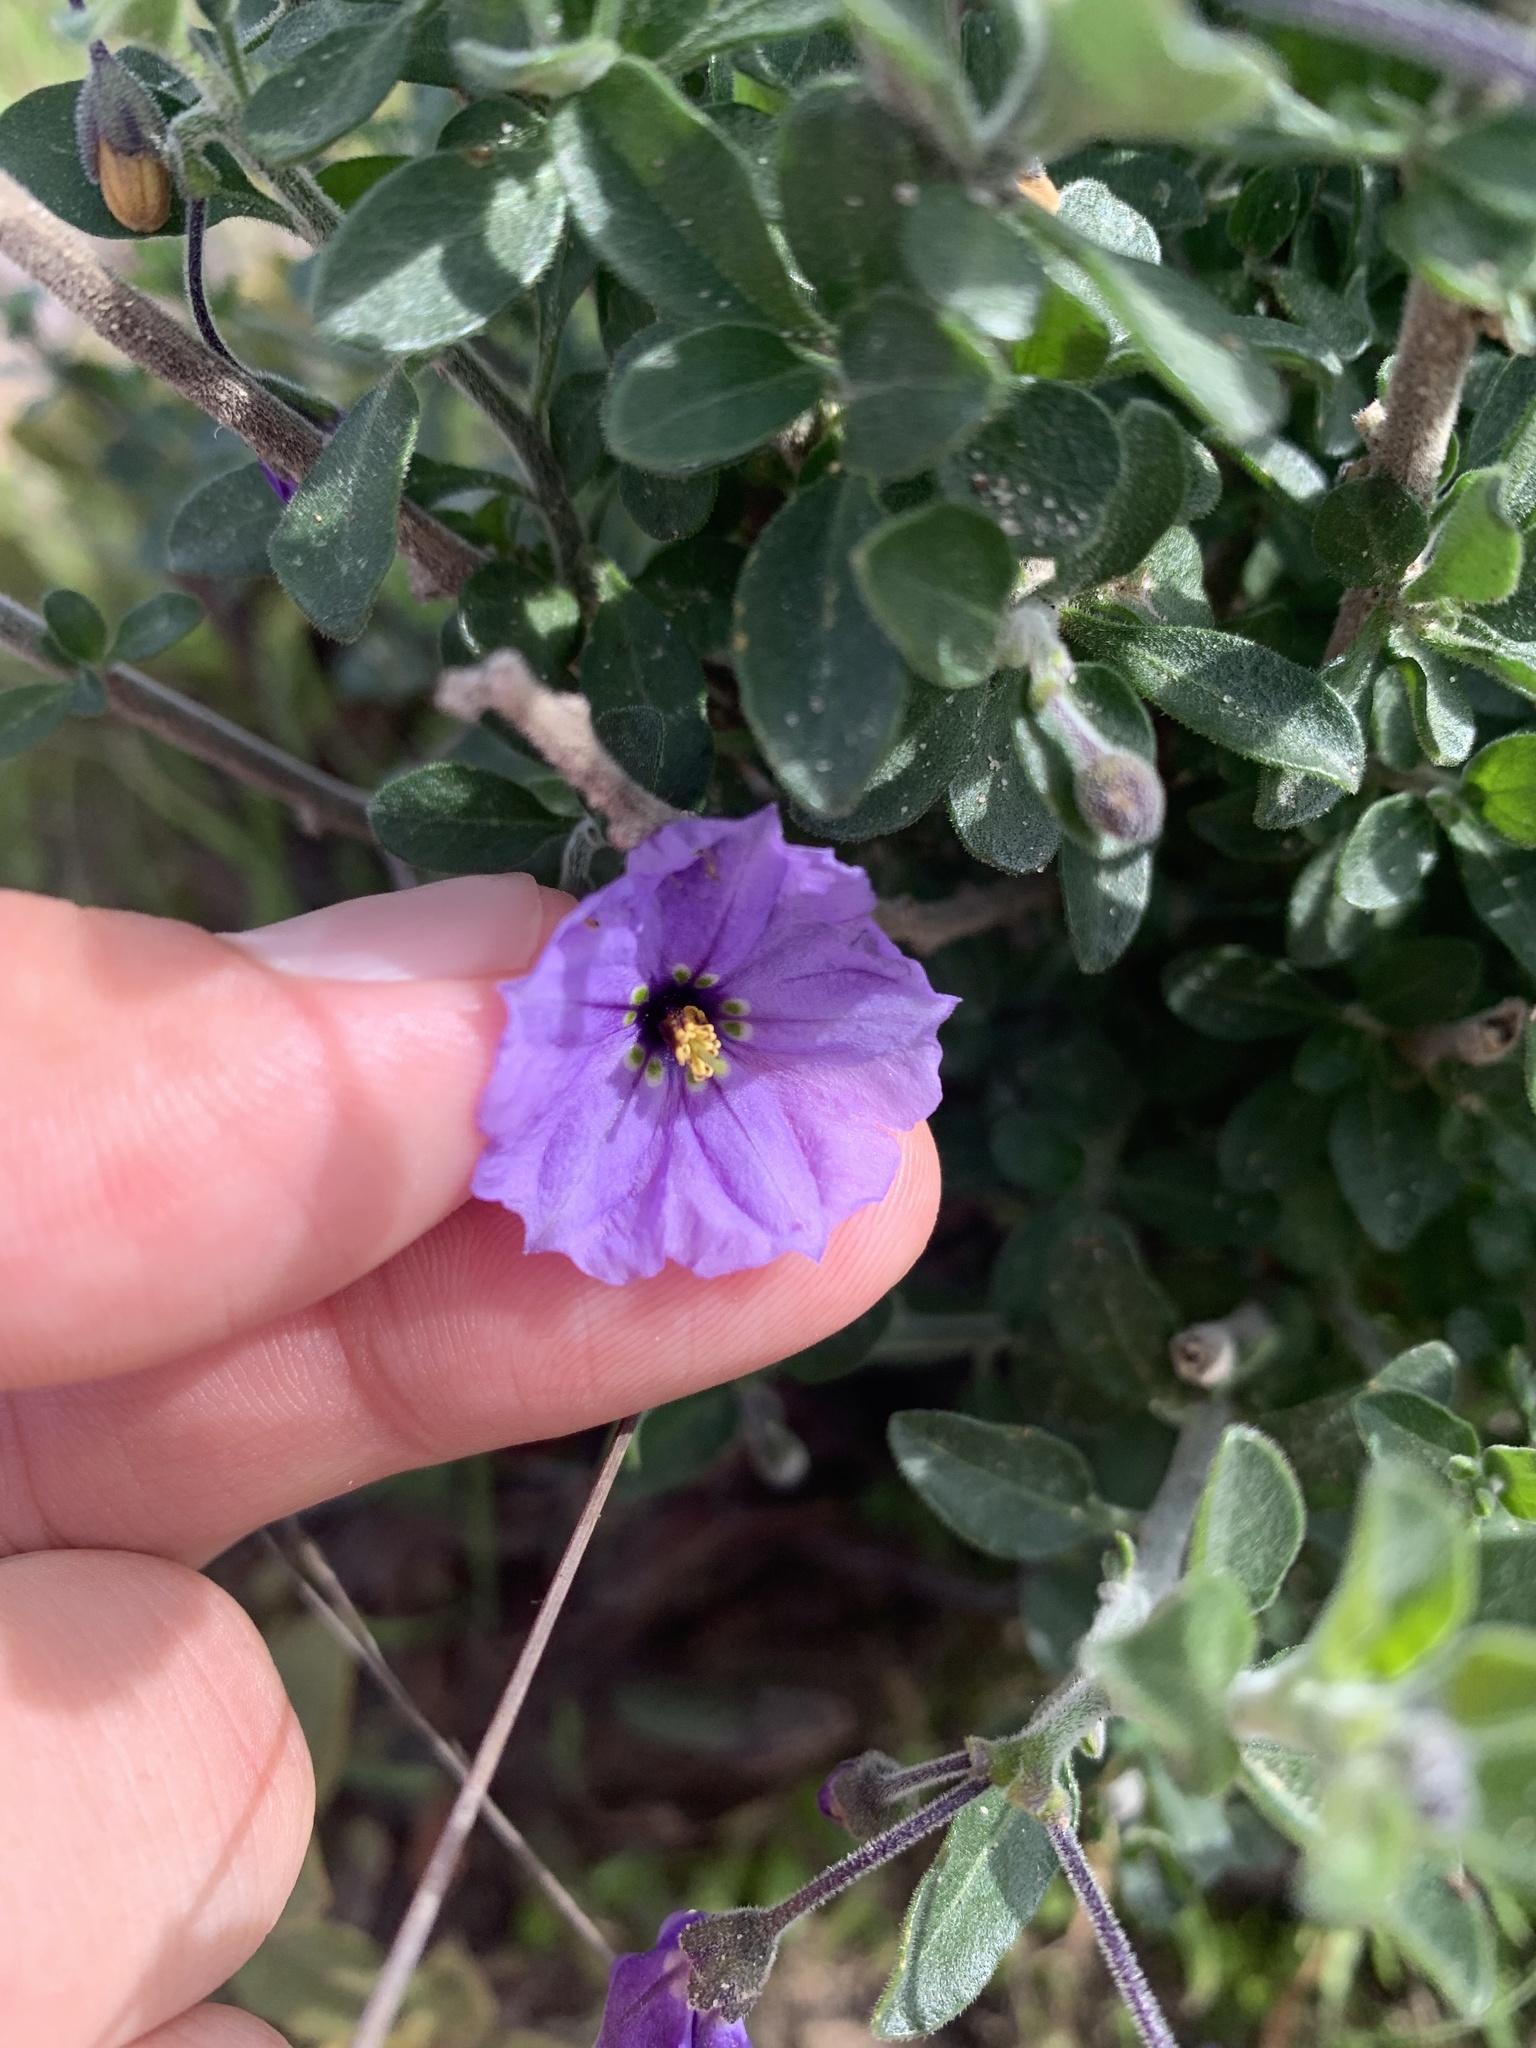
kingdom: Plantae
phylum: Tracheophyta
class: Magnoliopsida
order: Solanales
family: Solanaceae
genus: Solanum
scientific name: Solanum umbelliferum
